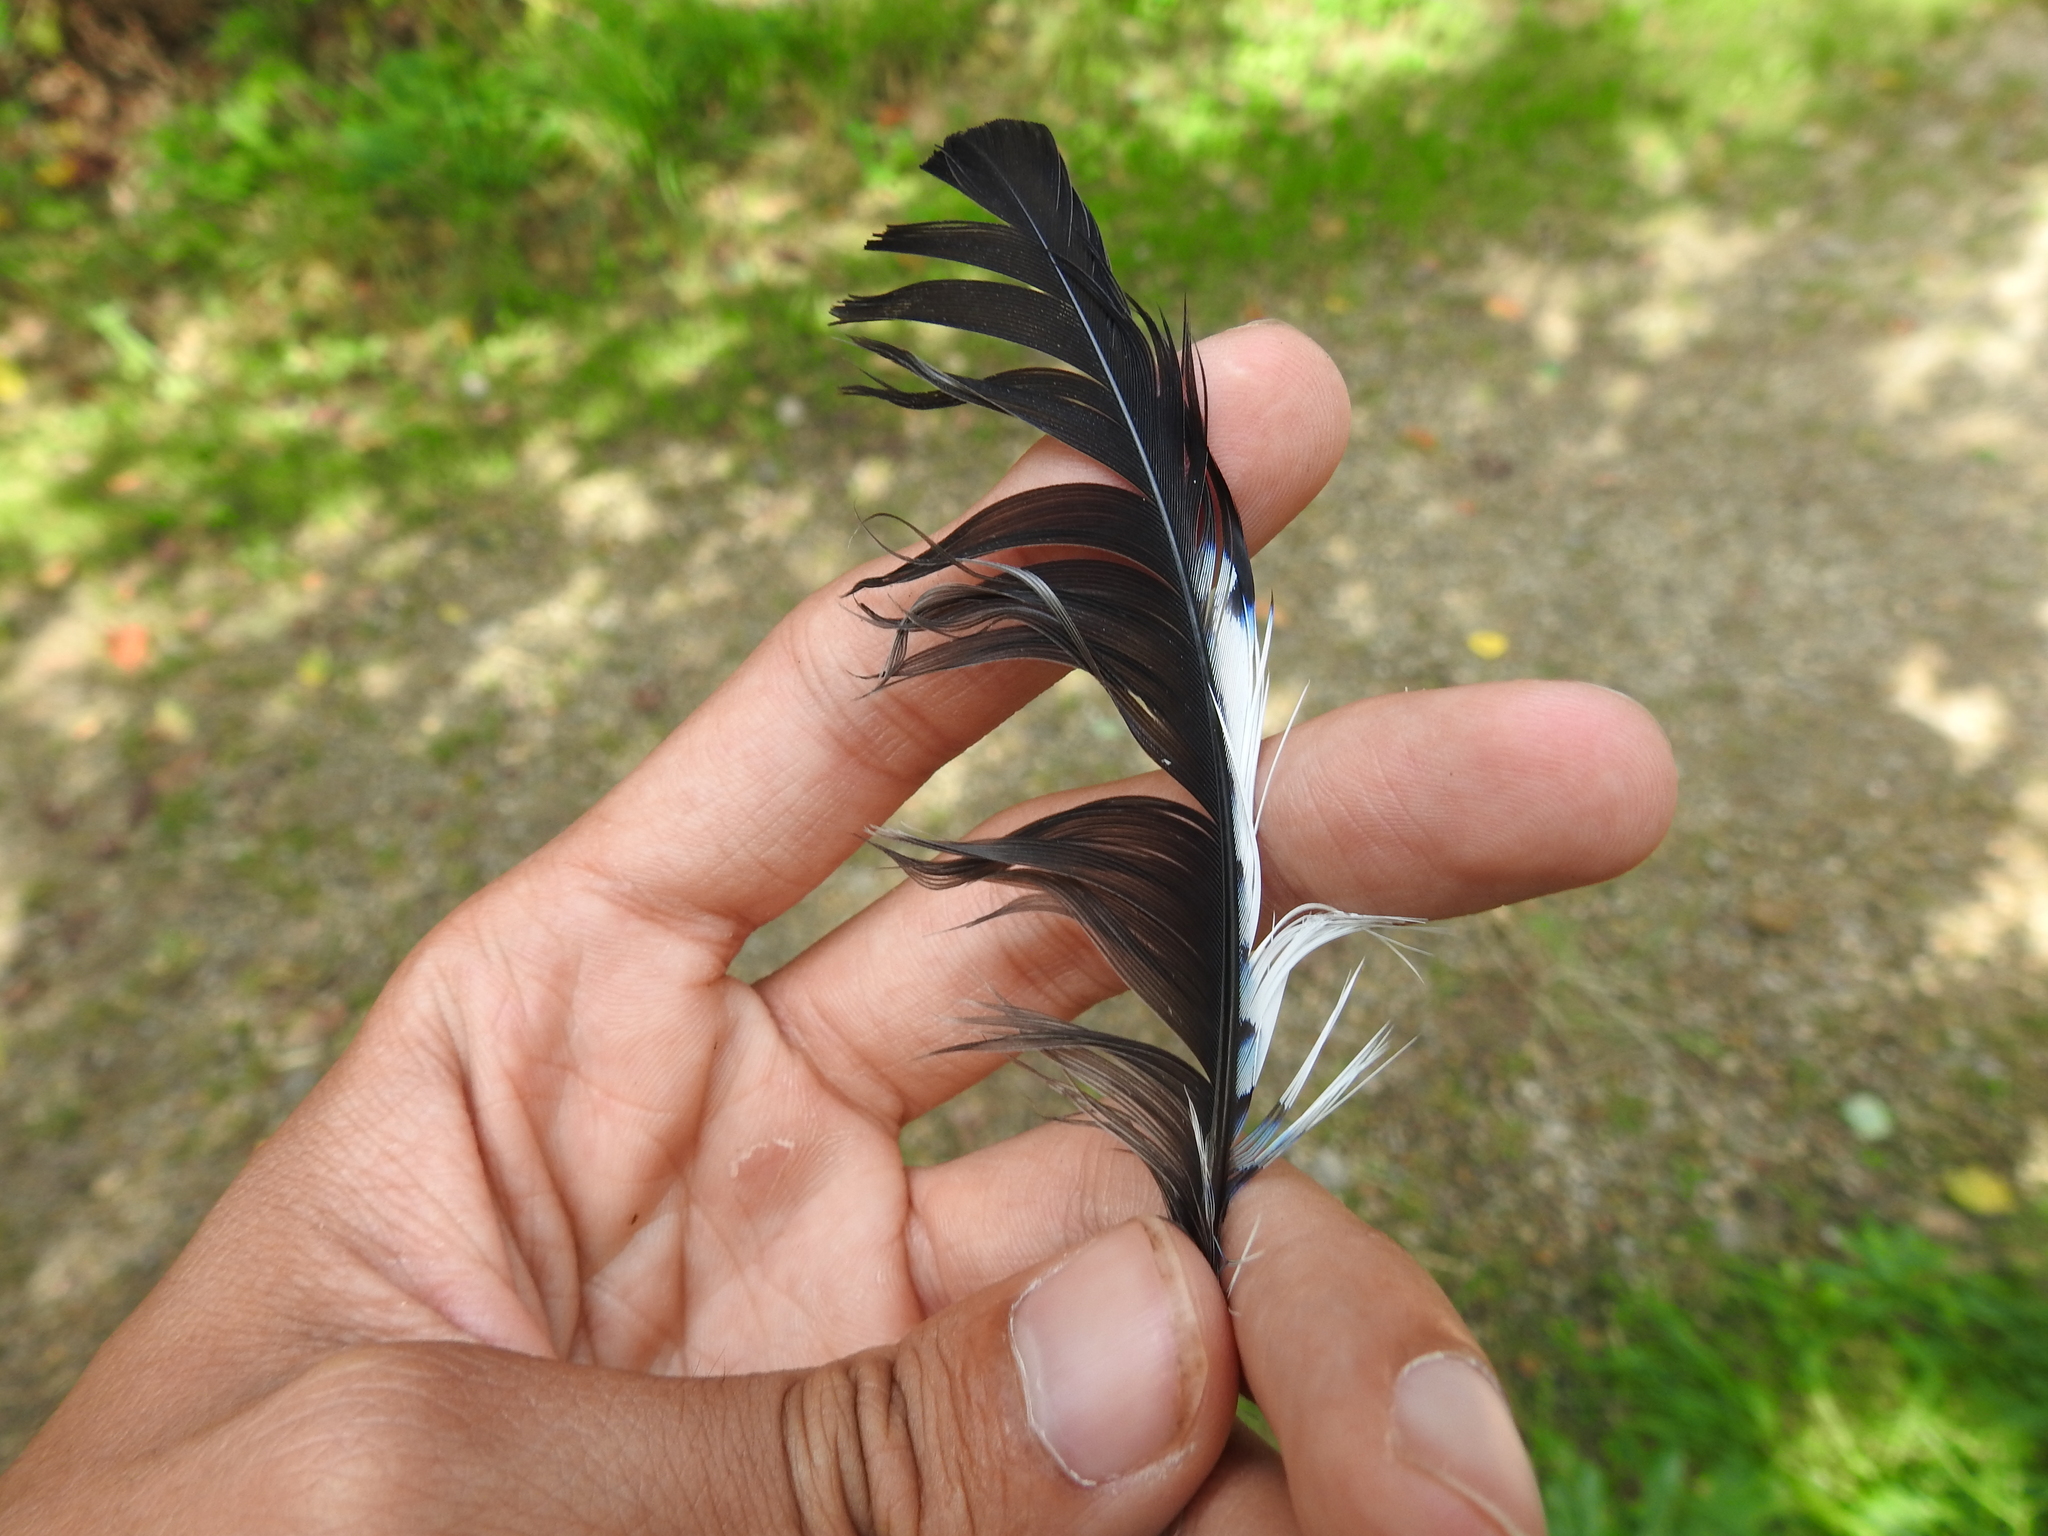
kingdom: Animalia
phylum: Chordata
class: Aves
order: Passeriformes
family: Corvidae
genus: Garrulus
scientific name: Garrulus glandarius
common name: Eurasian jay
